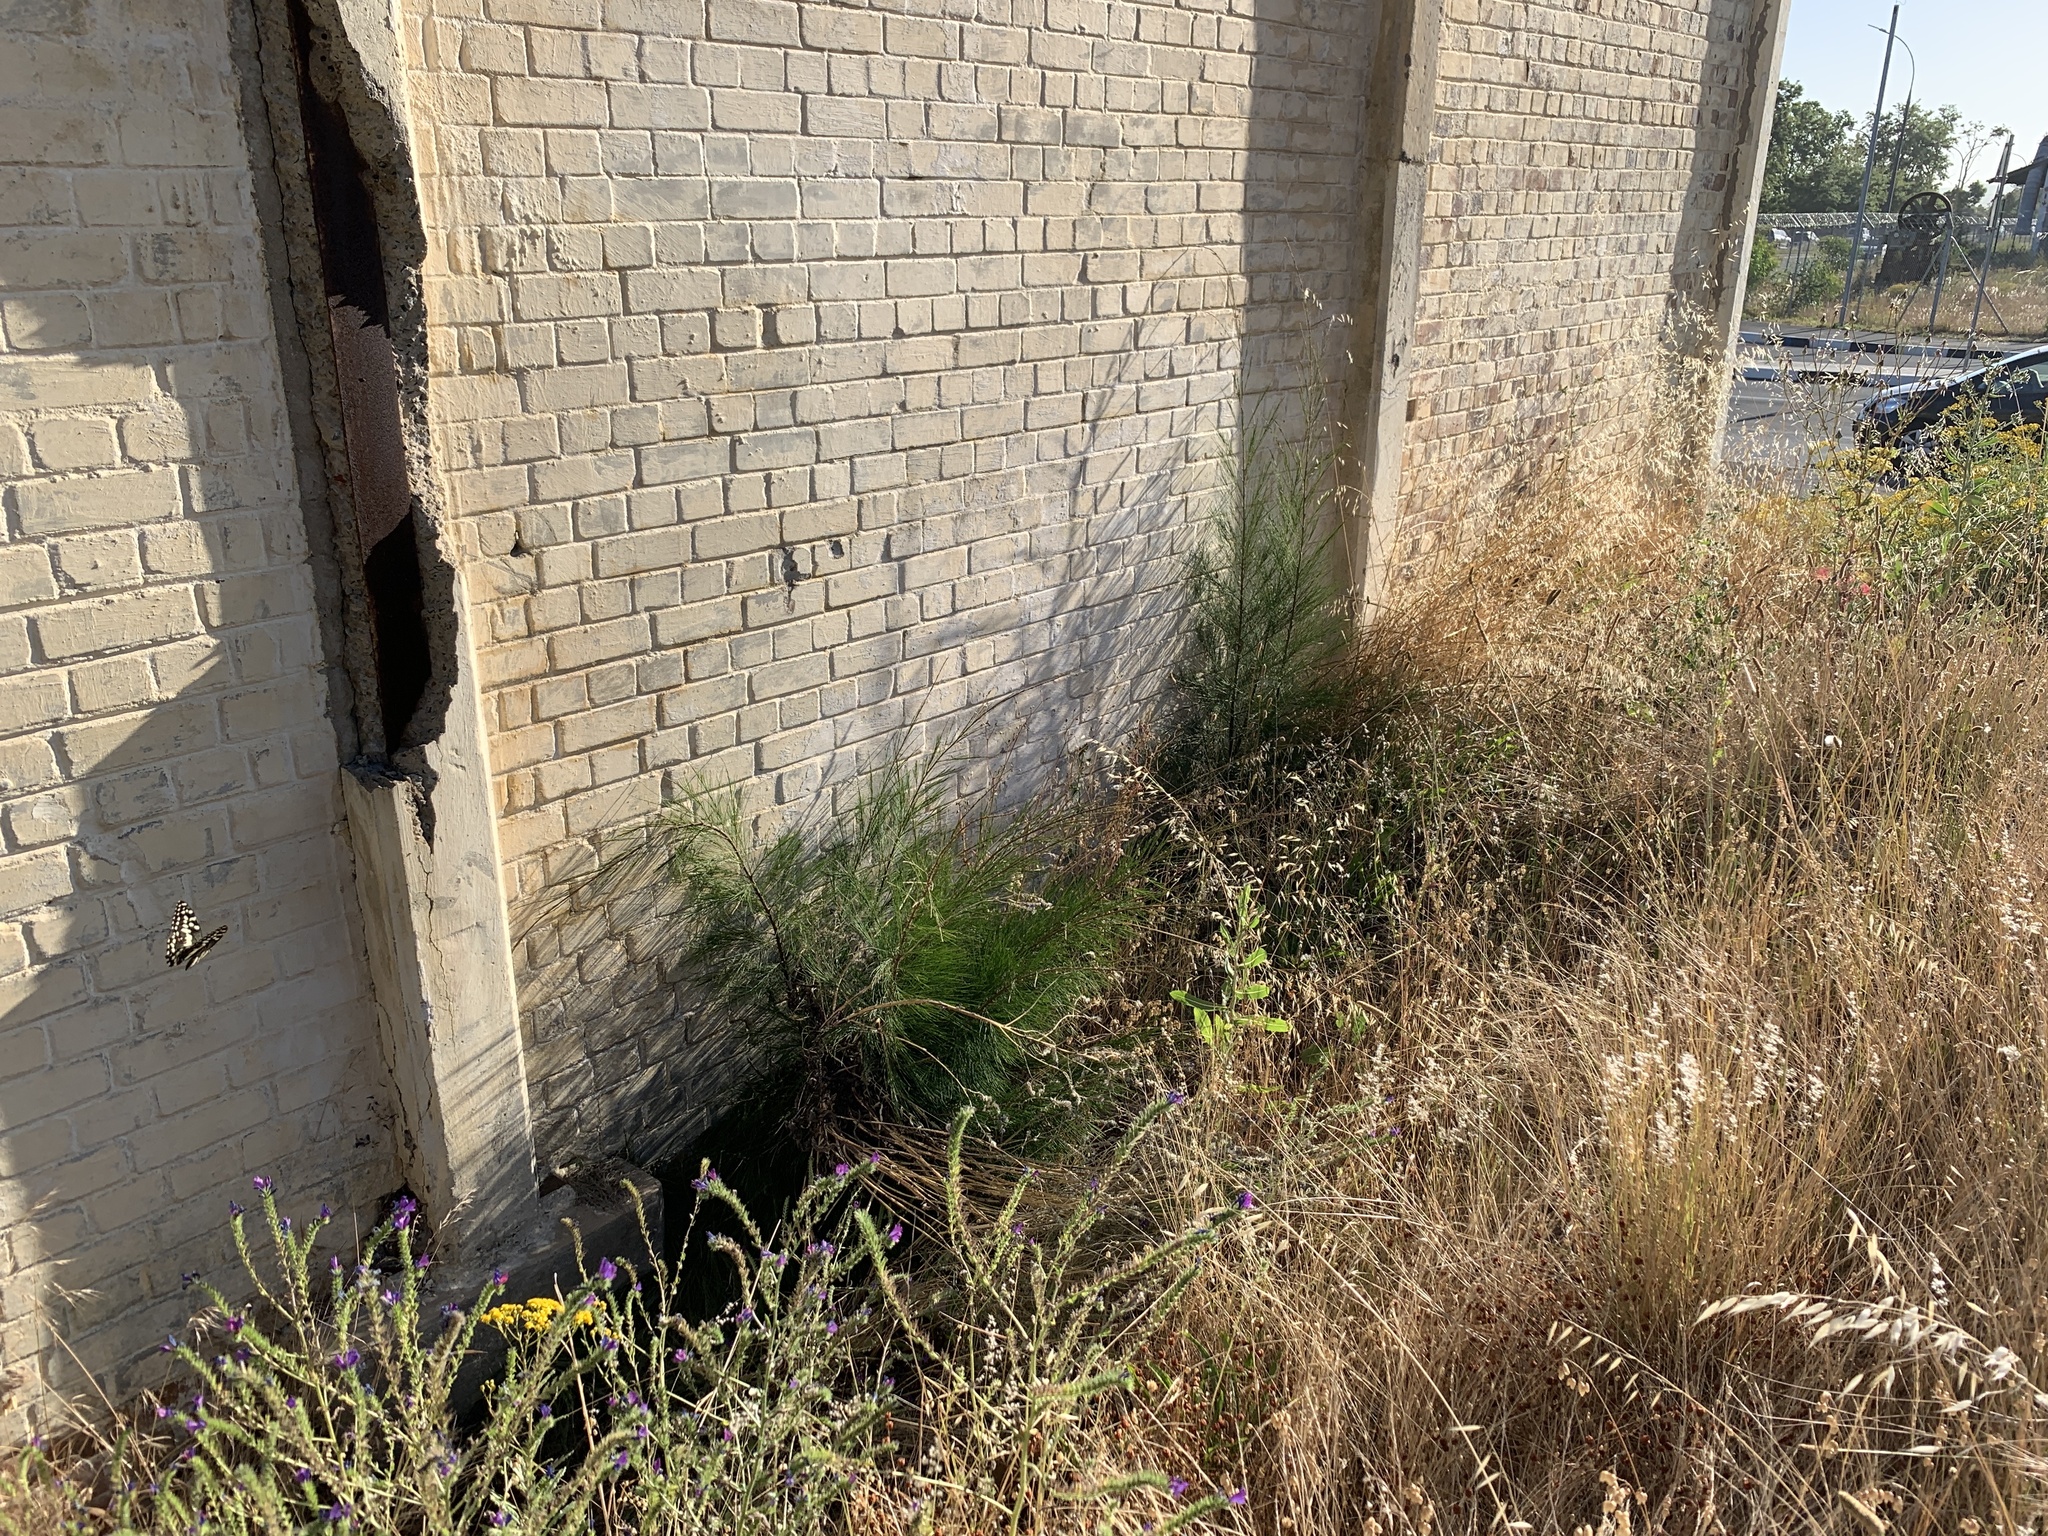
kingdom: Plantae
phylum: Tracheophyta
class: Magnoliopsida
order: Fagales
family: Casuarinaceae
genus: Casuarina
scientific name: Casuarina cunninghamiana
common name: River sheoak
